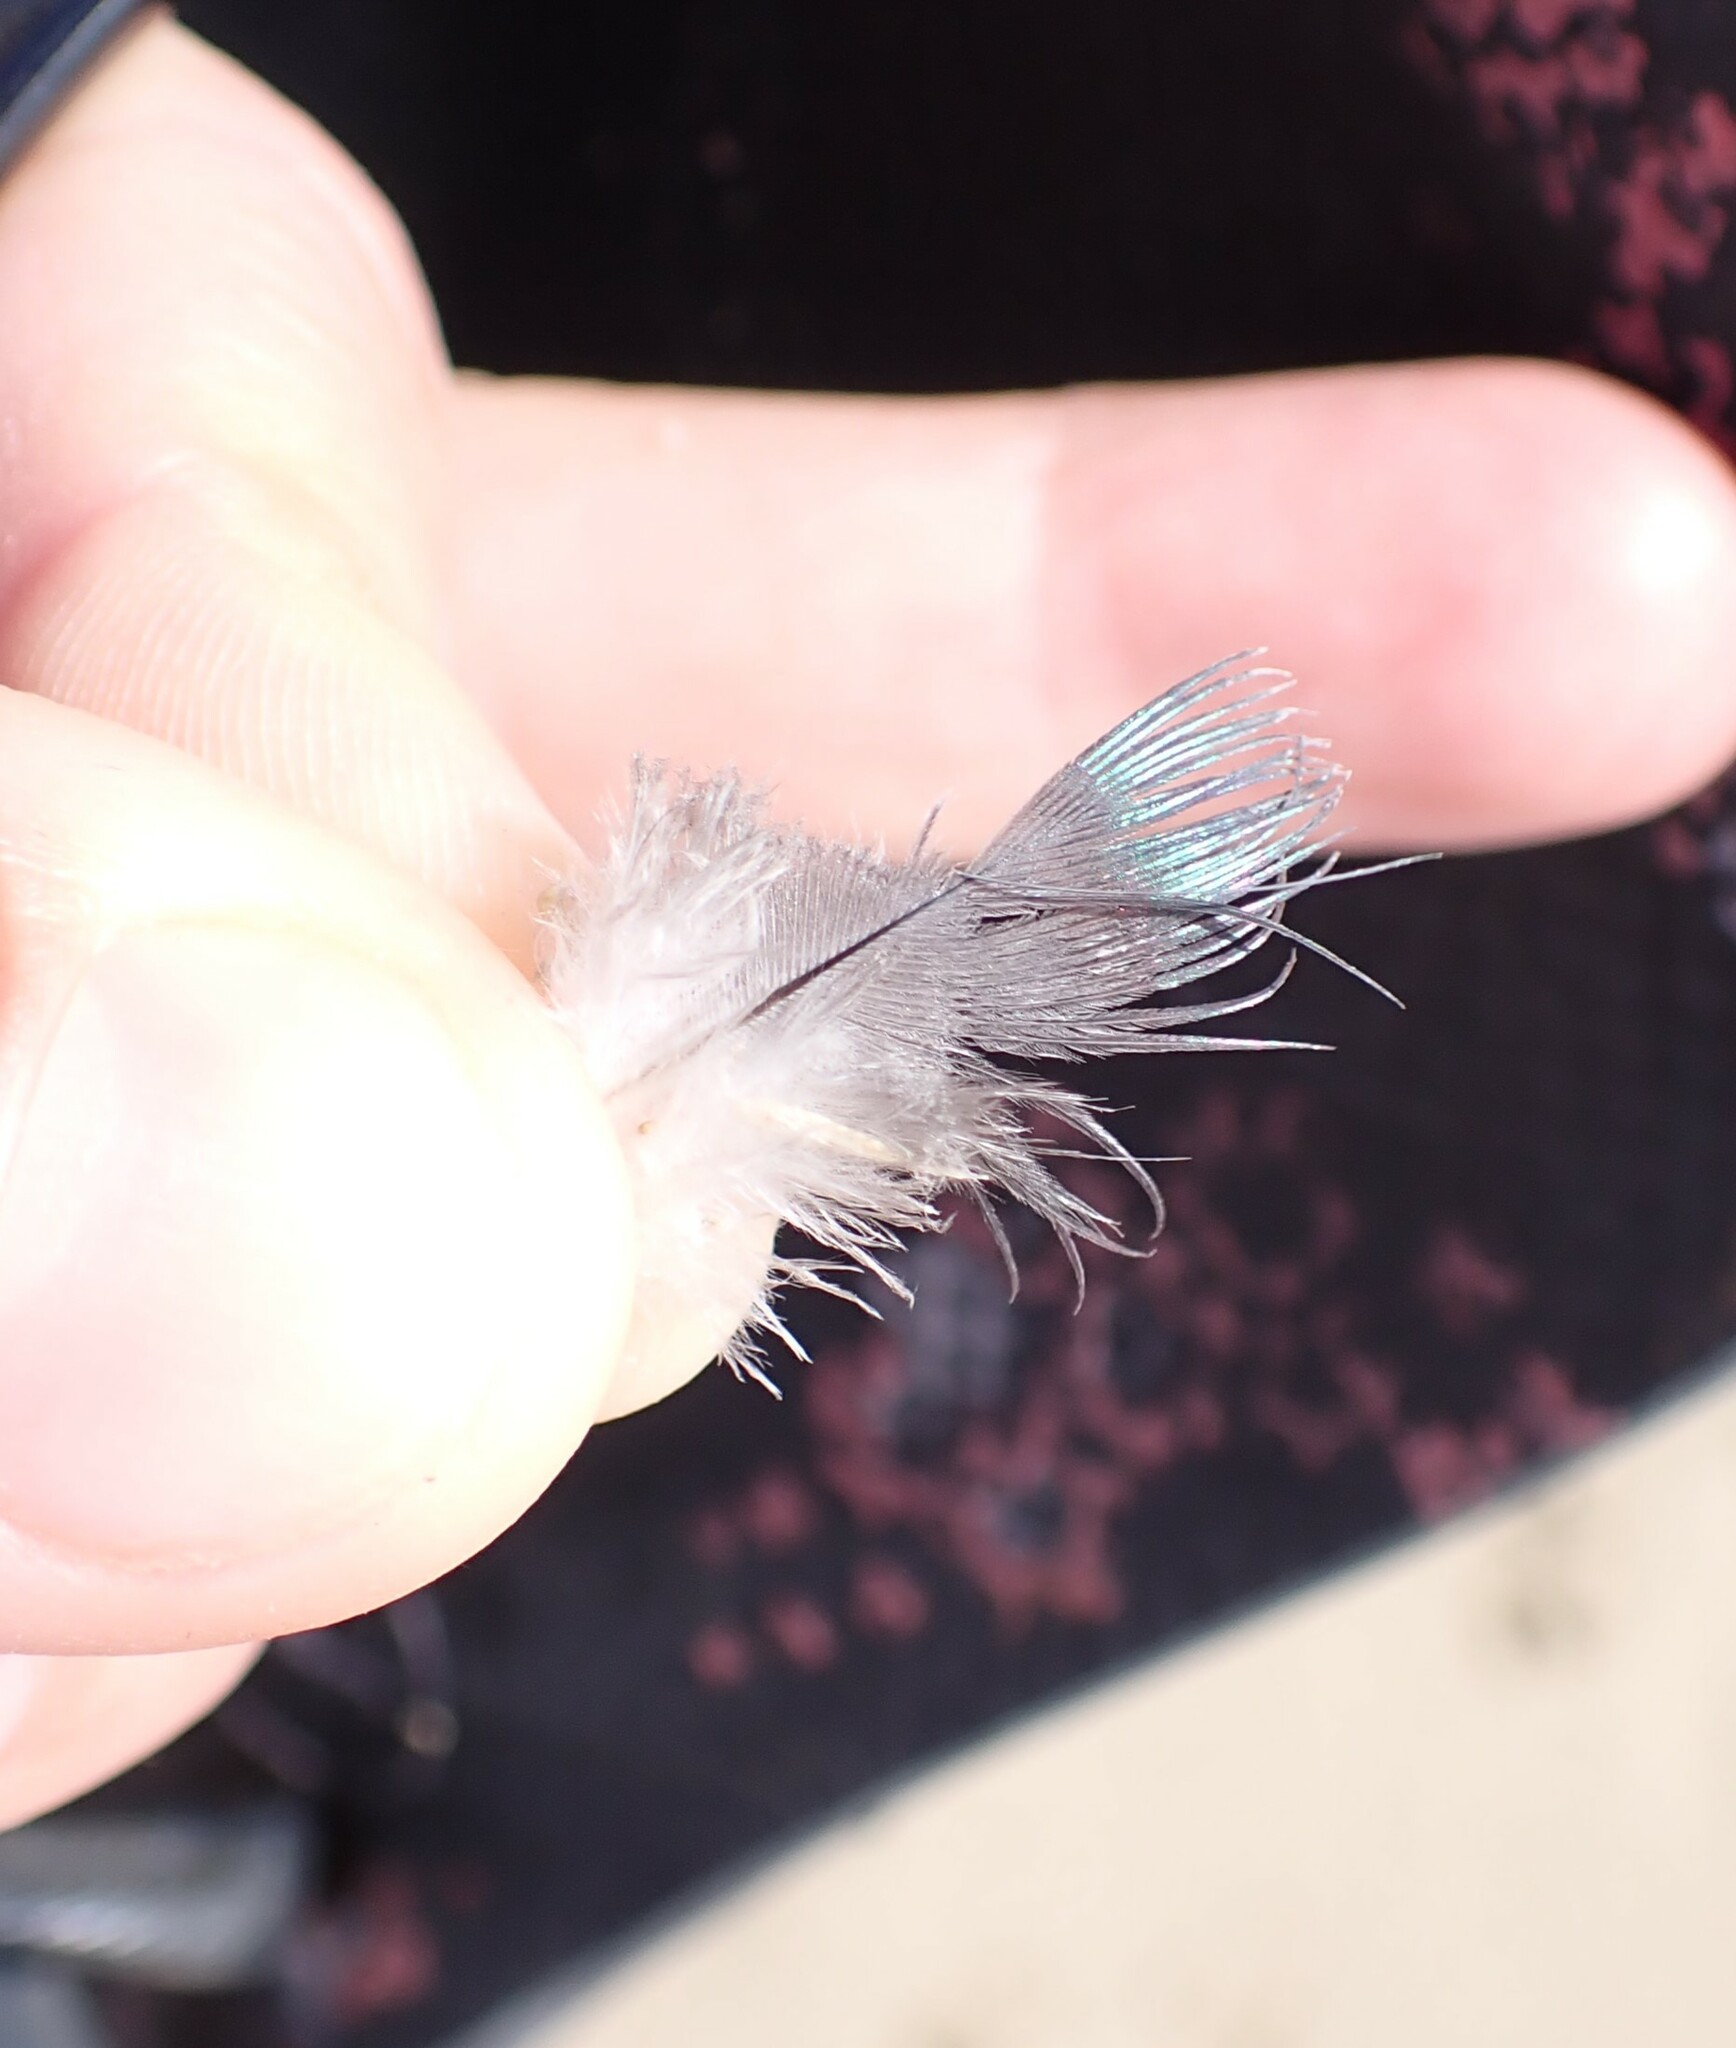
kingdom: Animalia
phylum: Chordata
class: Aves
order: Columbiformes
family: Columbidae
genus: Columba
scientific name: Columba livia
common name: Rock pigeon
